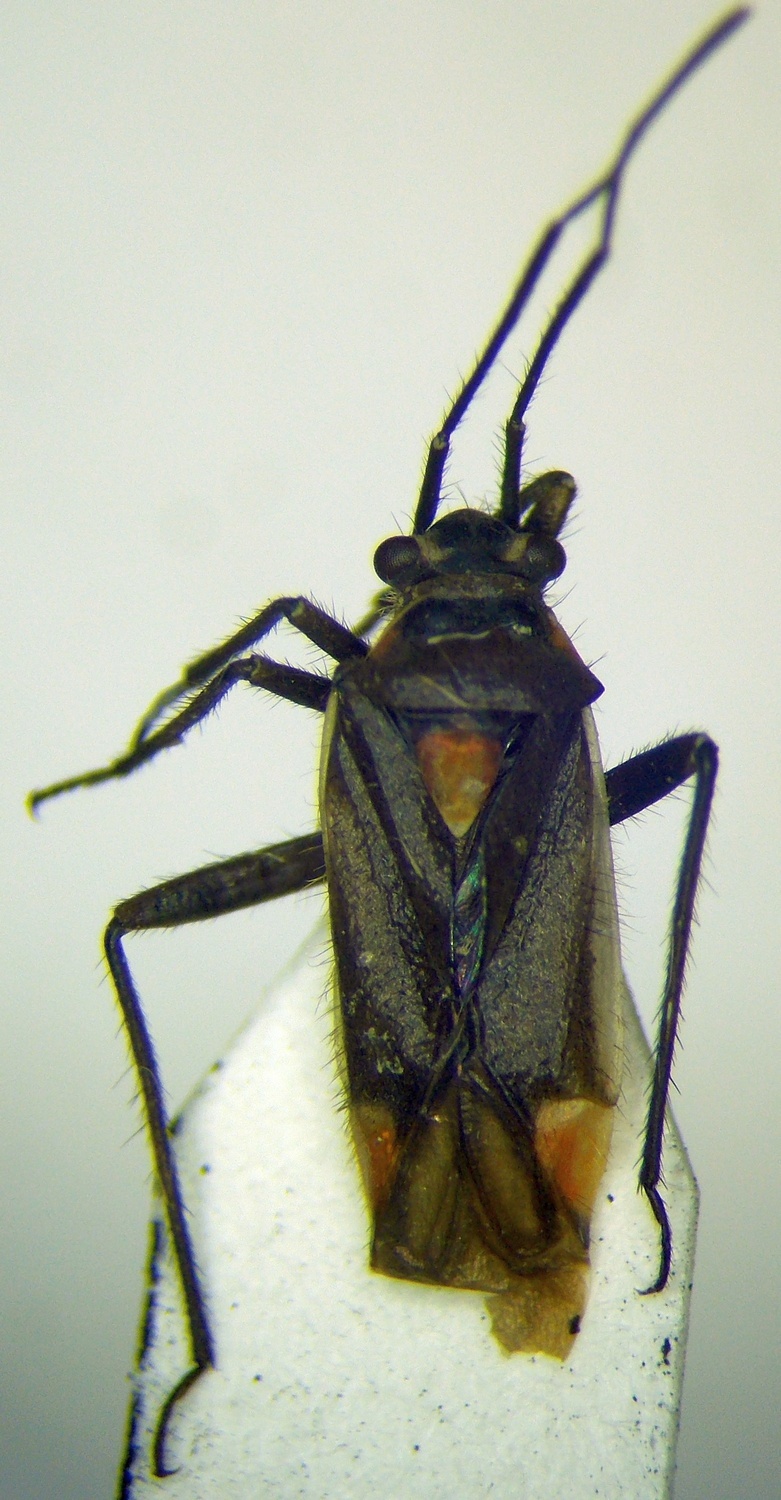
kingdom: Animalia
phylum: Arthropoda
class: Insecta
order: Hemiptera
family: Miridae
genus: Capsodes
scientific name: Capsodes gothicus
